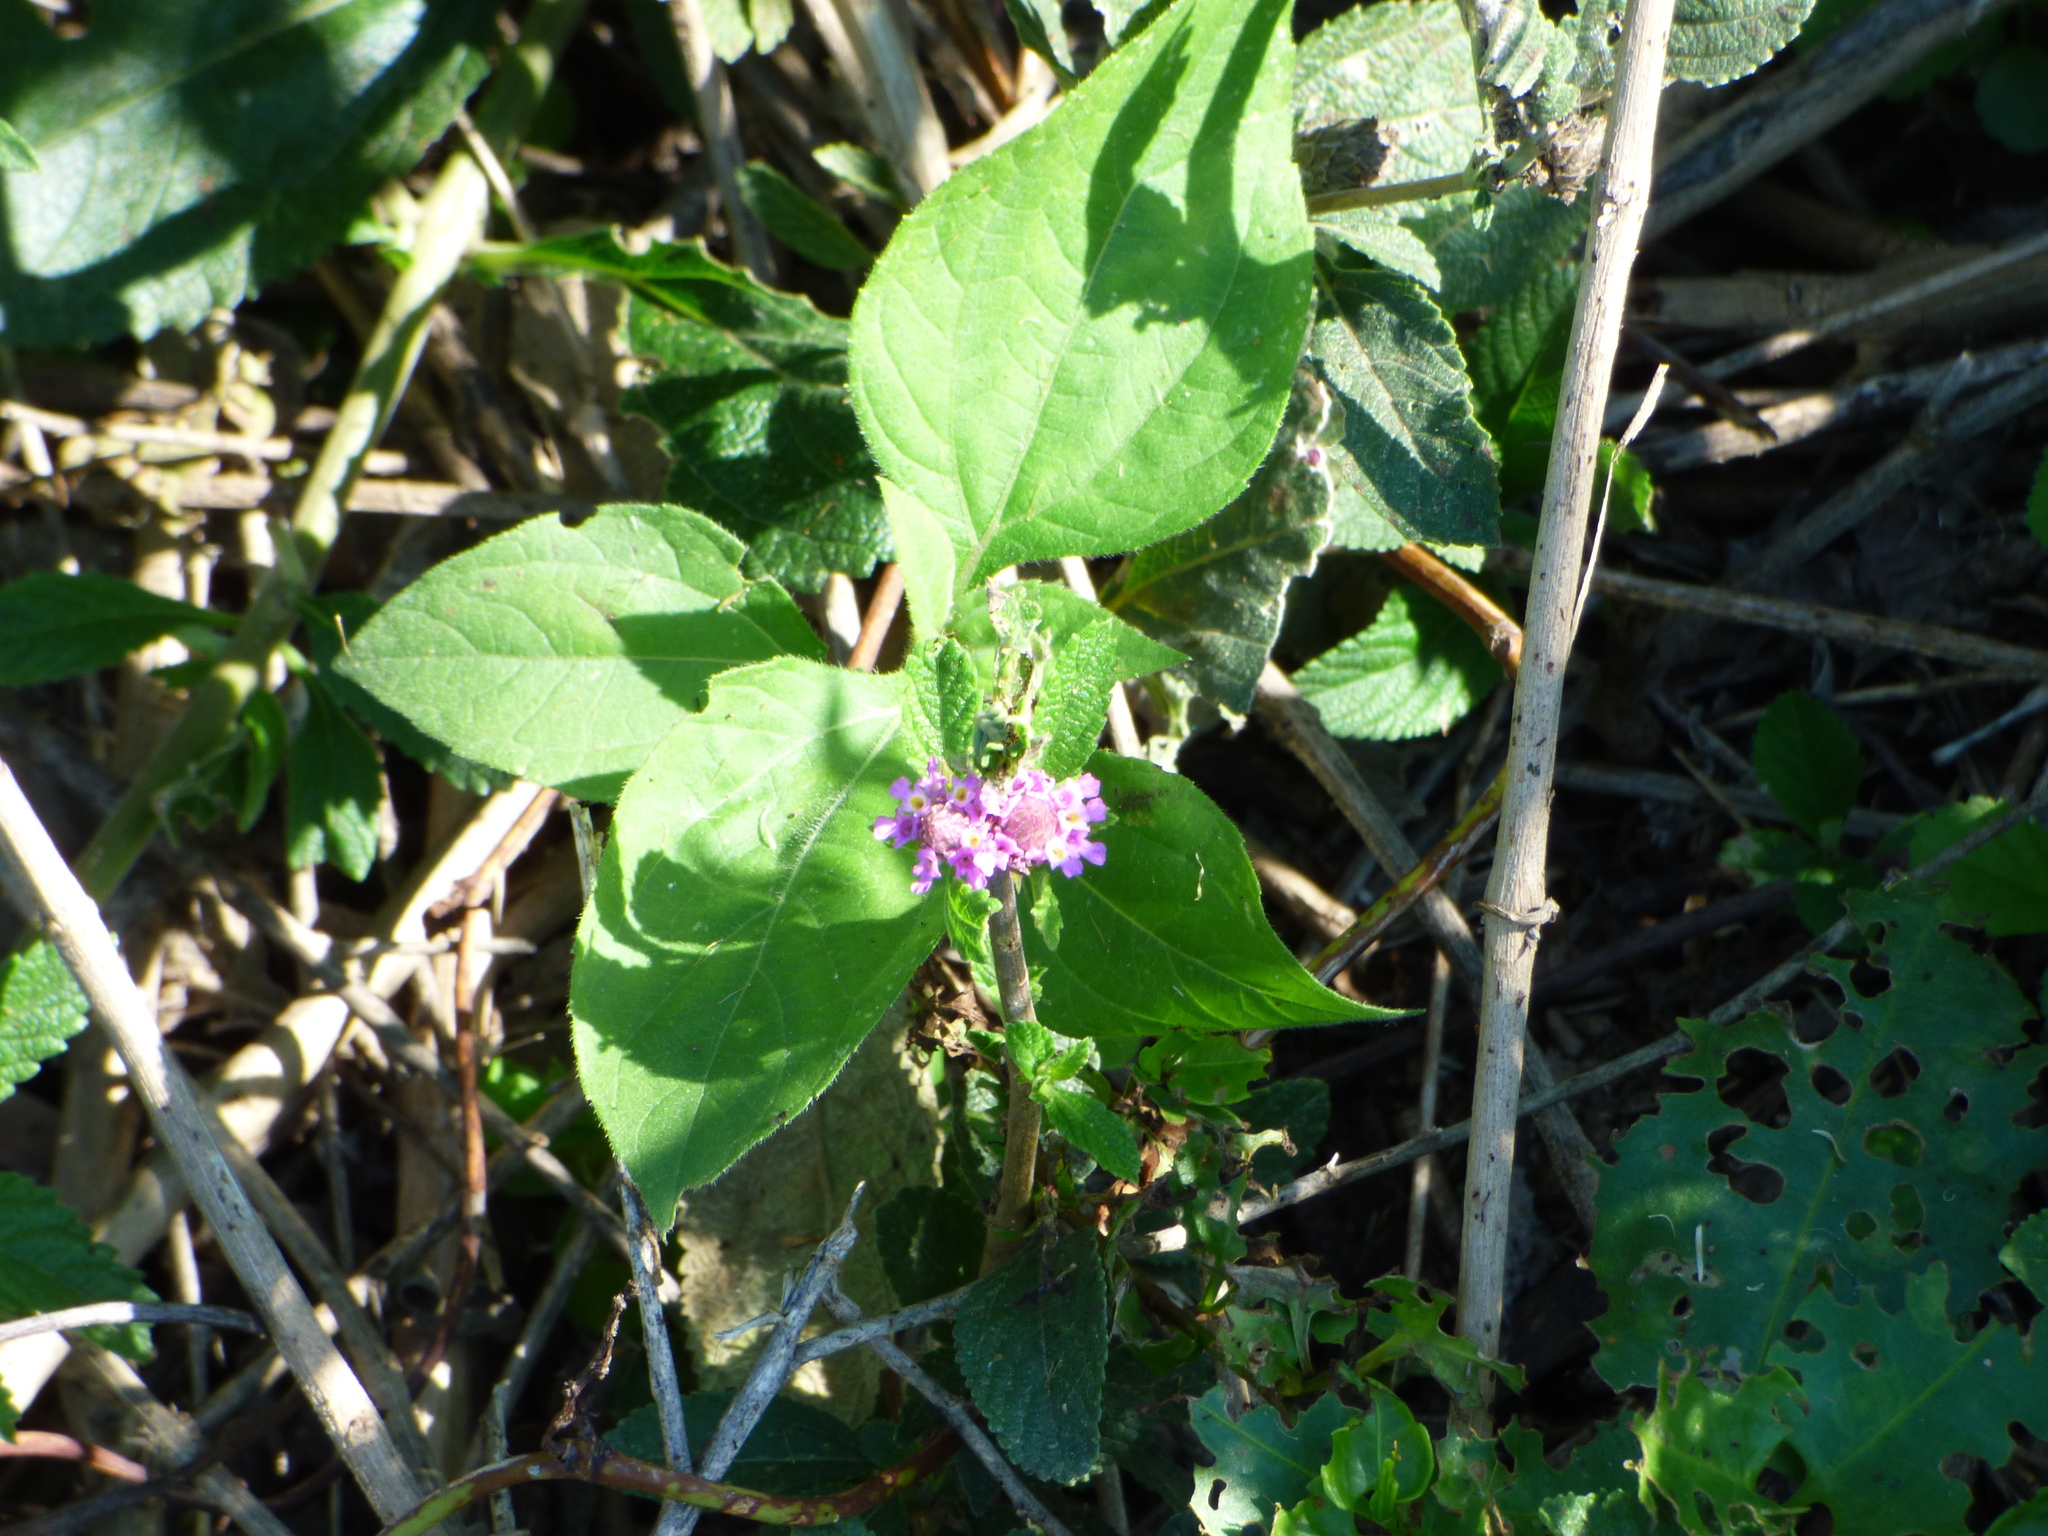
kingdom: Plantae
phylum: Tracheophyta
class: Magnoliopsida
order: Lamiales
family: Verbenaceae
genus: Lippia
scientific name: Lippia alba
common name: Bushy matgrass
